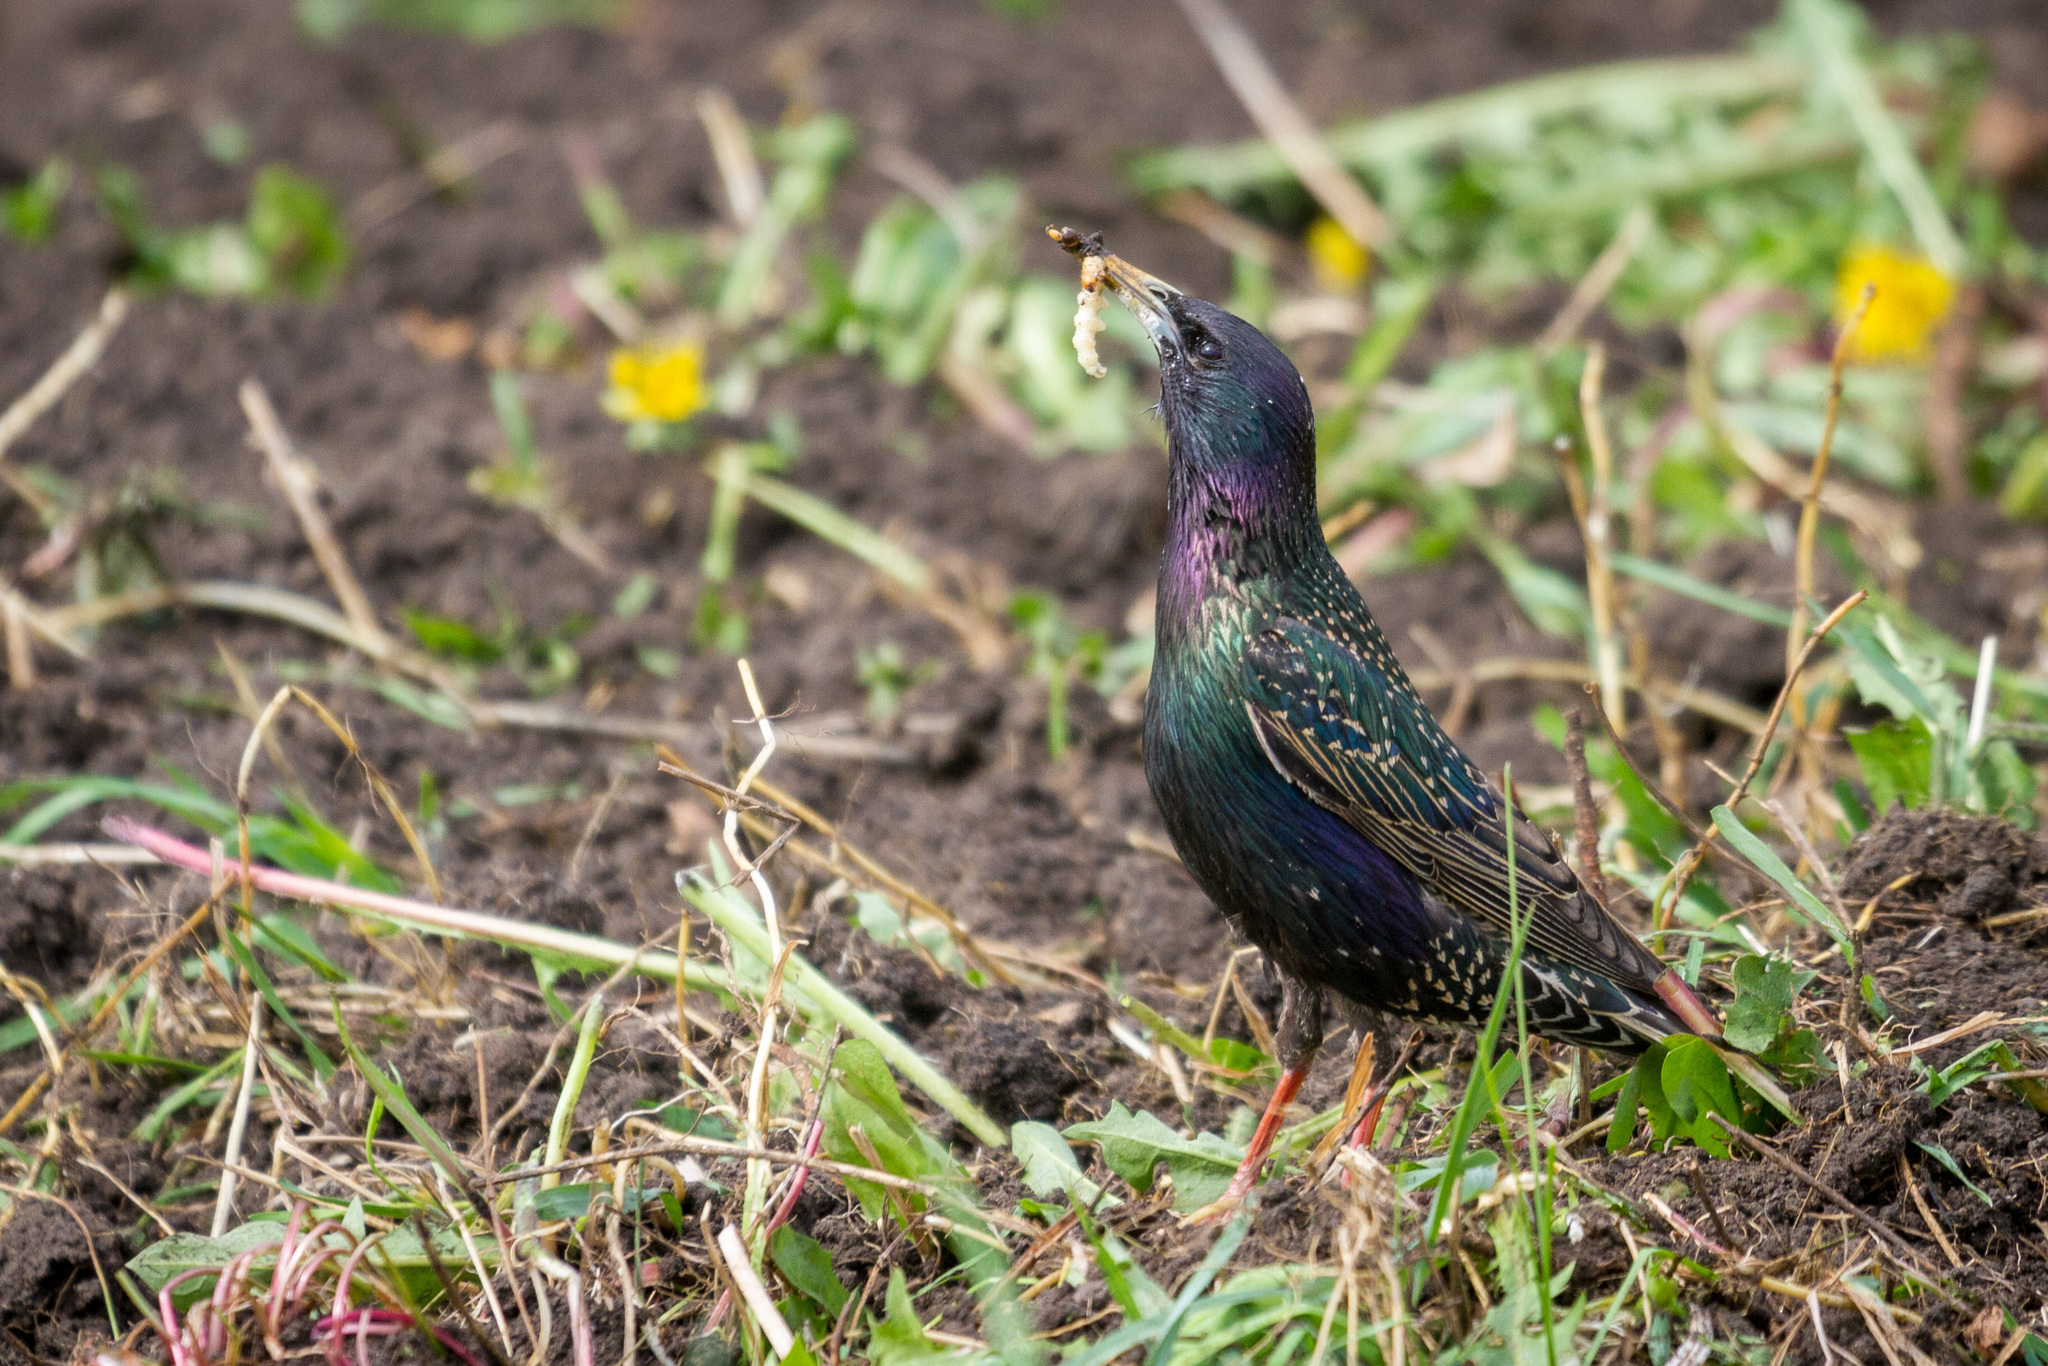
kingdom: Animalia
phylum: Chordata
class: Aves
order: Passeriformes
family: Sturnidae
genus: Sturnus
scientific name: Sturnus vulgaris
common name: Common starling
